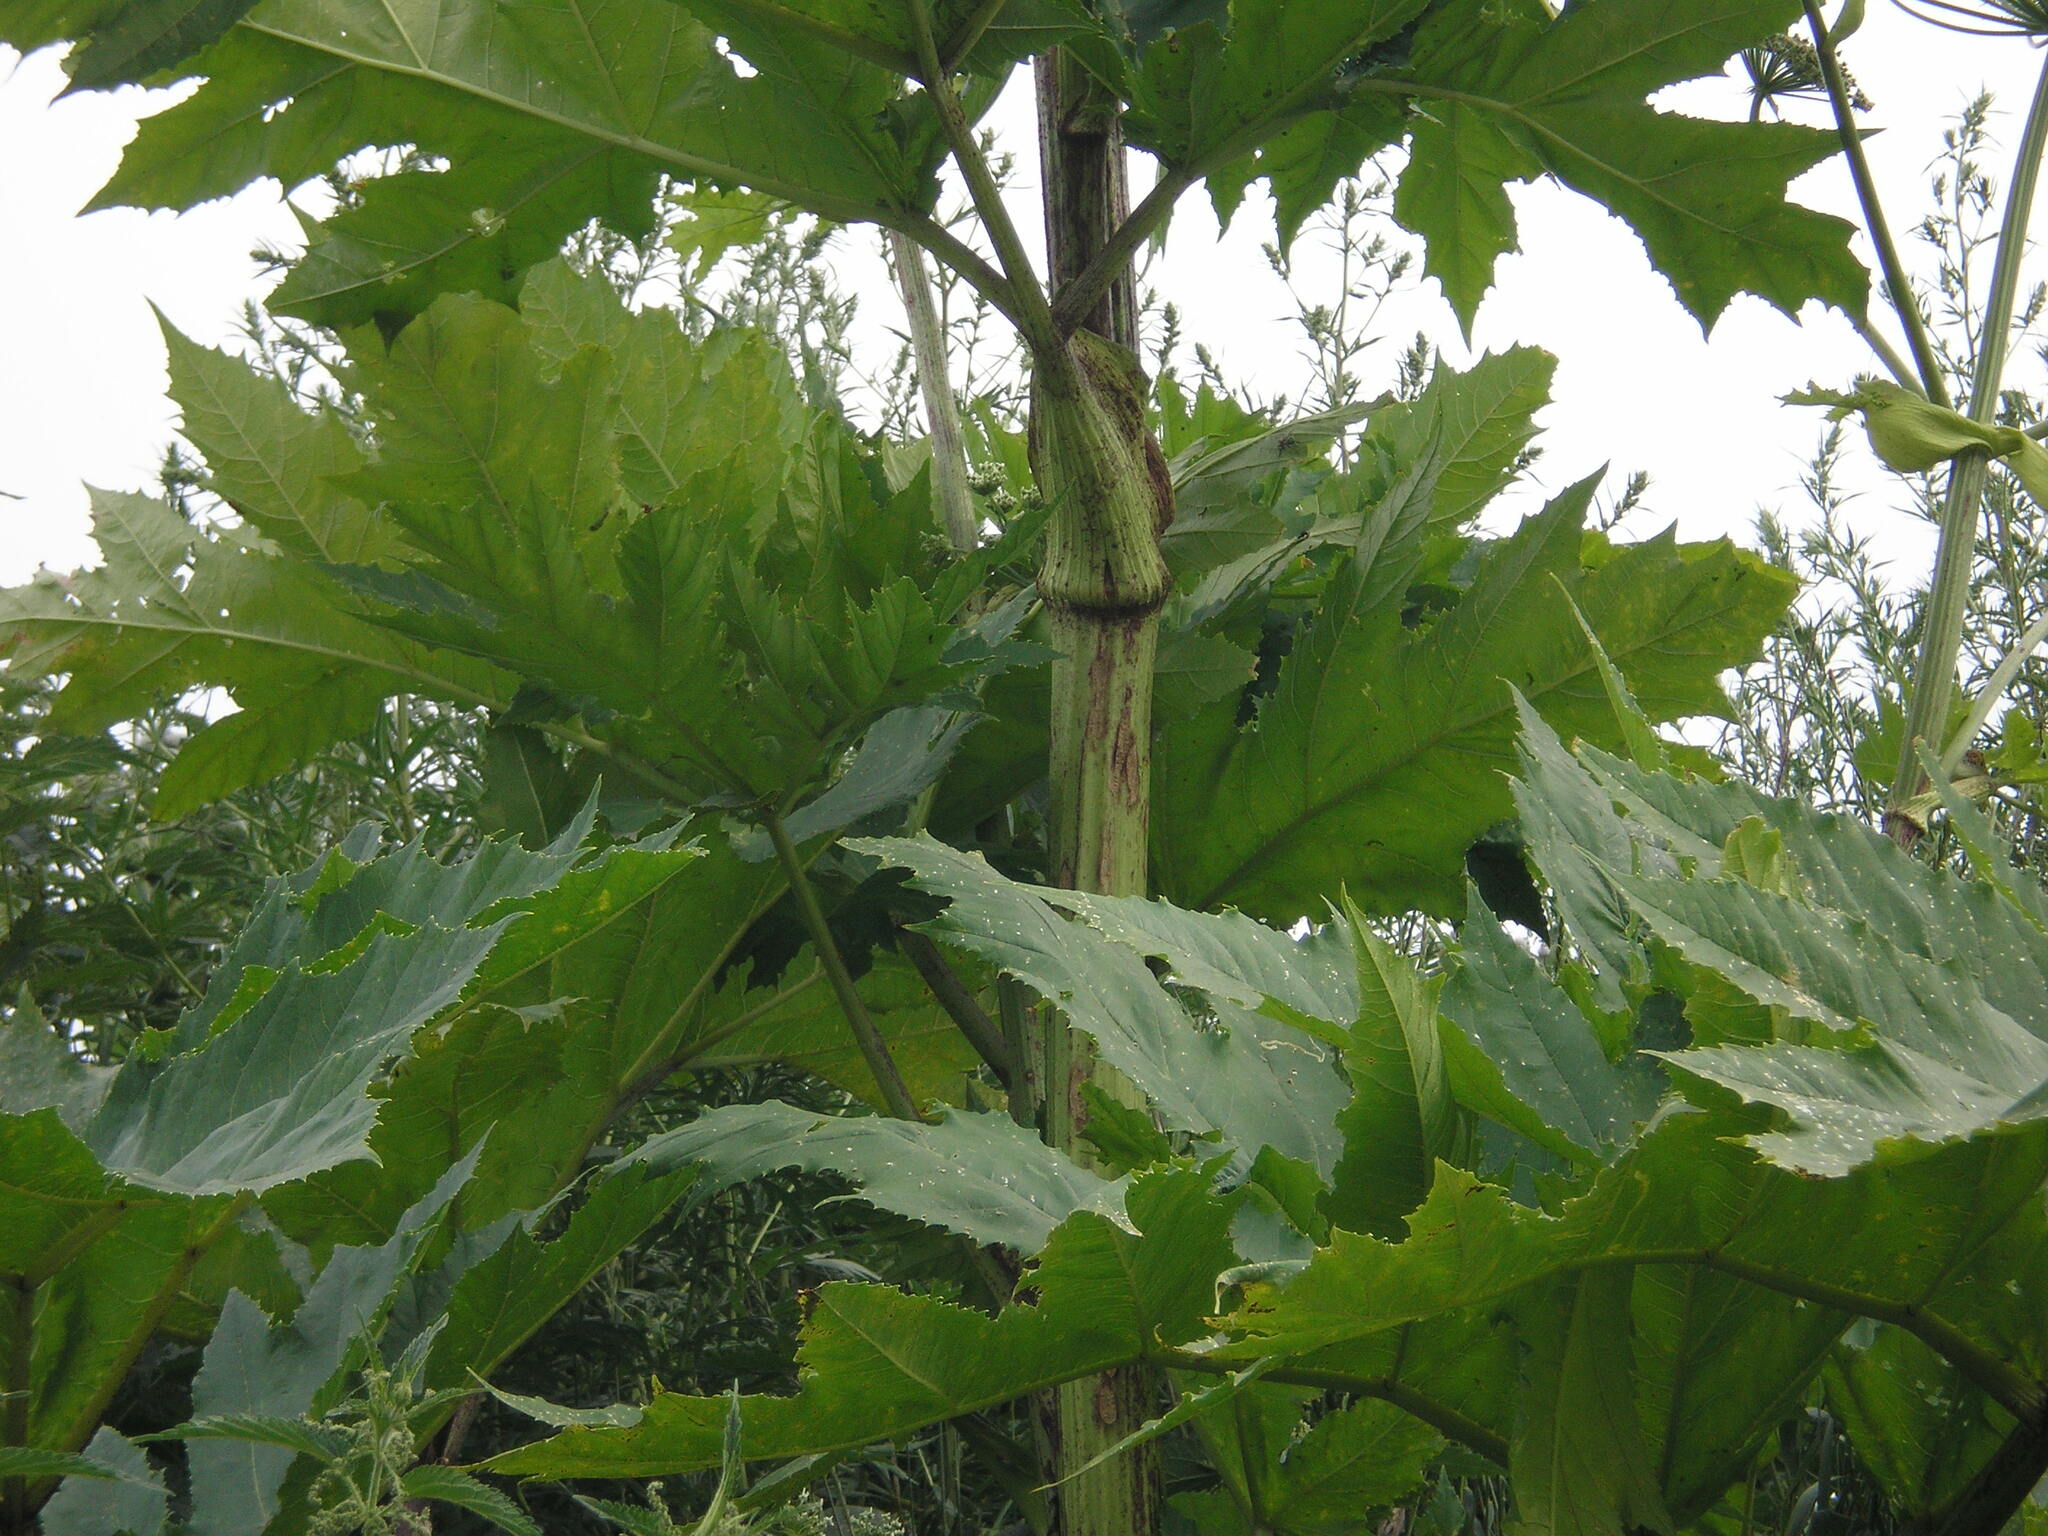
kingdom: Plantae
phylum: Tracheophyta
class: Magnoliopsida
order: Apiales
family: Apiaceae
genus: Heracleum
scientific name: Heracleum sosnowskyi
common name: Sosnowsky's hogweed
